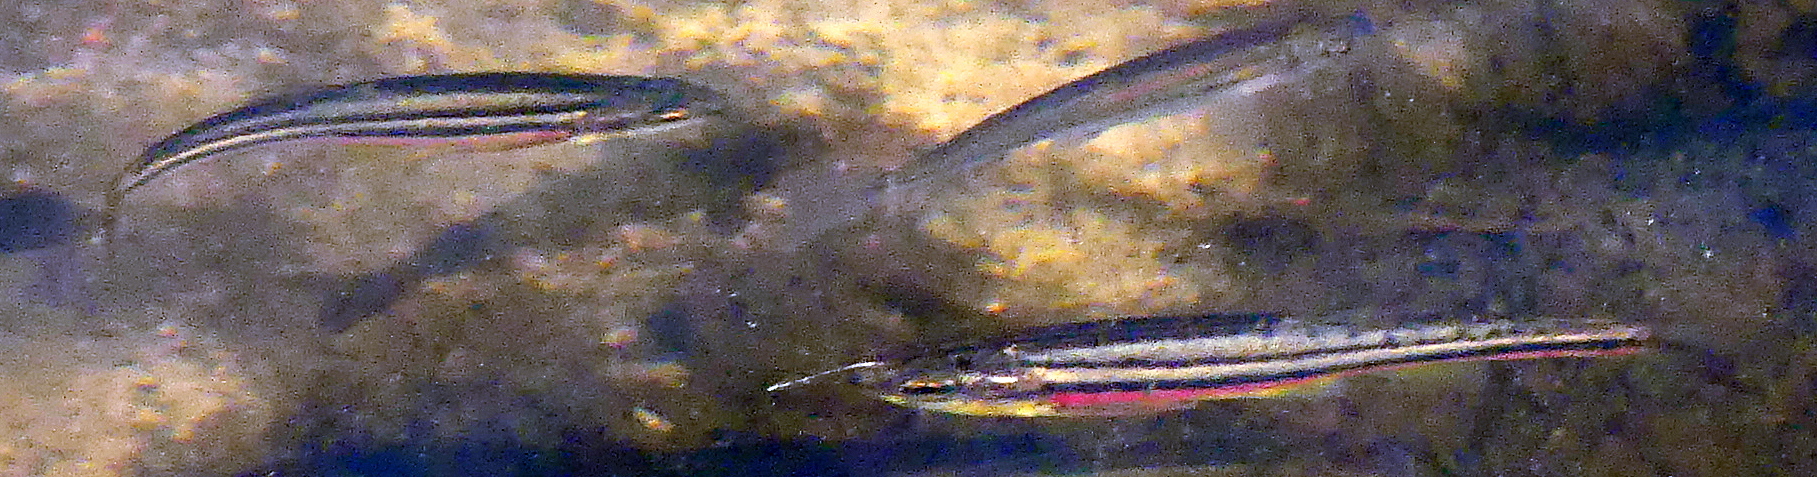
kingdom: Animalia
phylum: Chordata
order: Cypriniformes
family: Cyprinidae
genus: Chrosomus
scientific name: Chrosomus eos
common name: Northern redbelly dace
